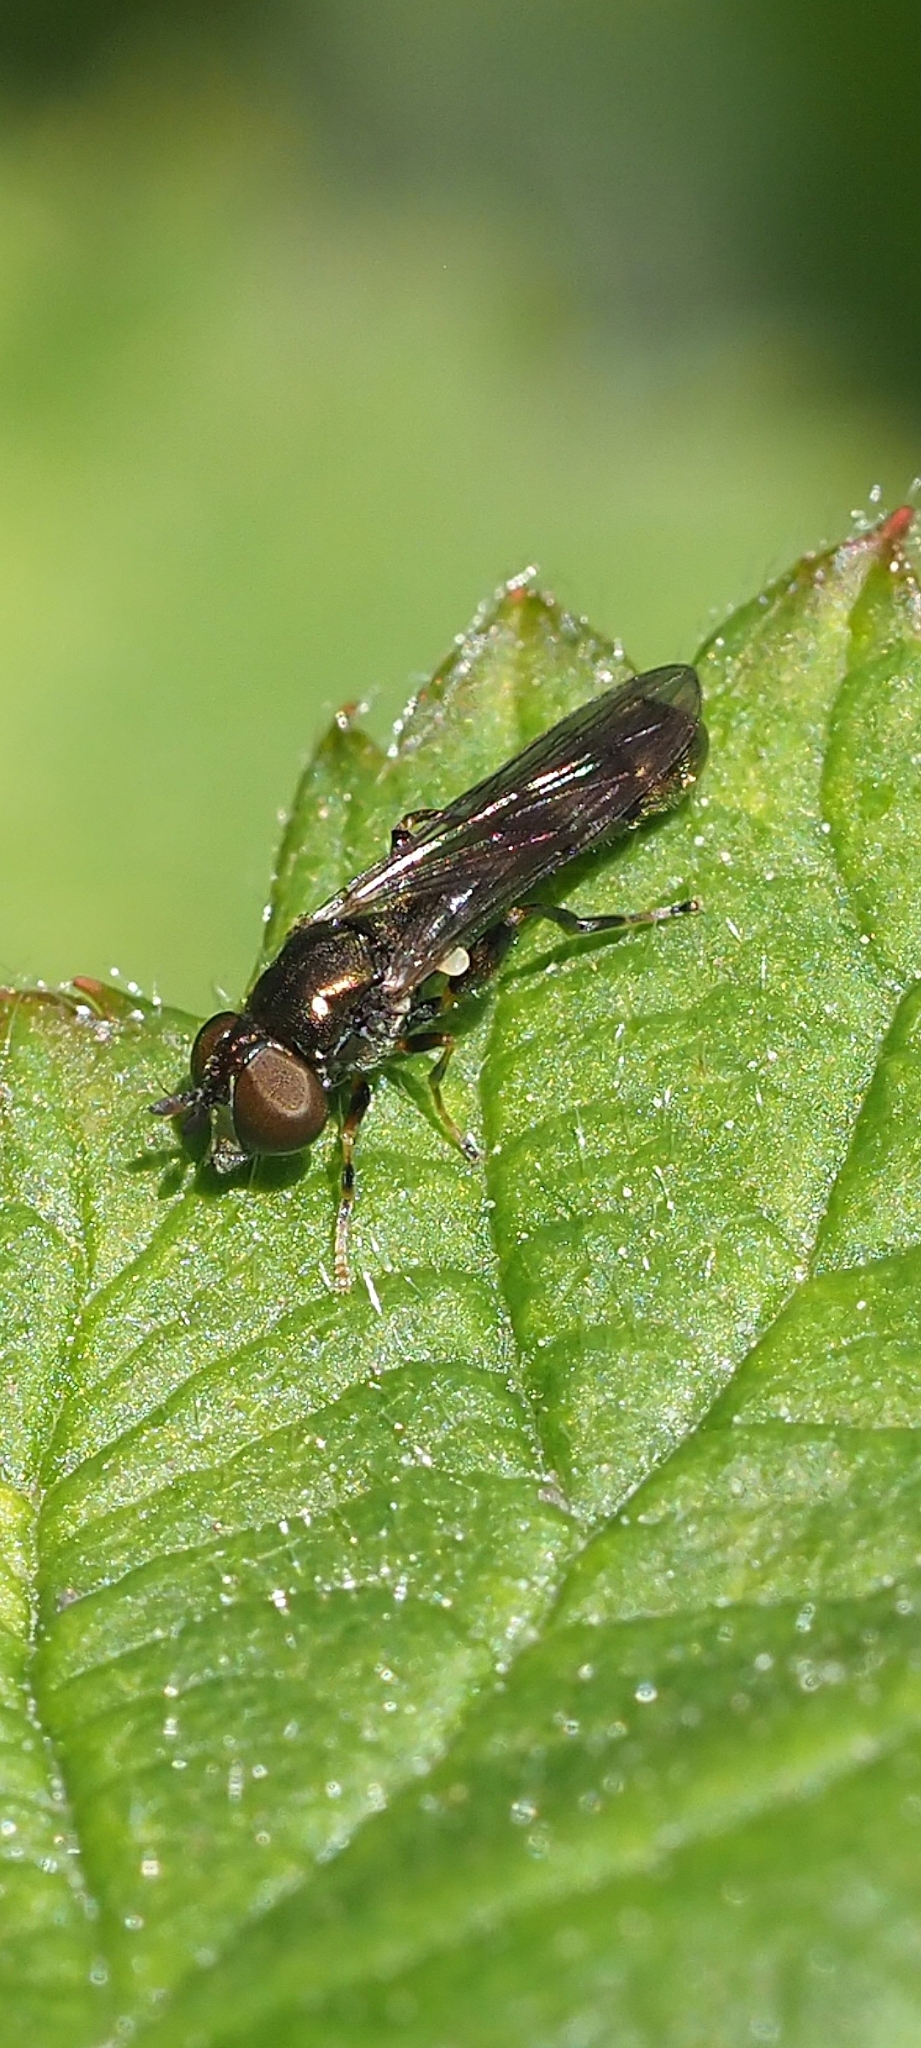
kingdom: Animalia
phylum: Arthropoda
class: Insecta
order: Diptera
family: Syrphidae
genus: Neoascia
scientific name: Neoascia
